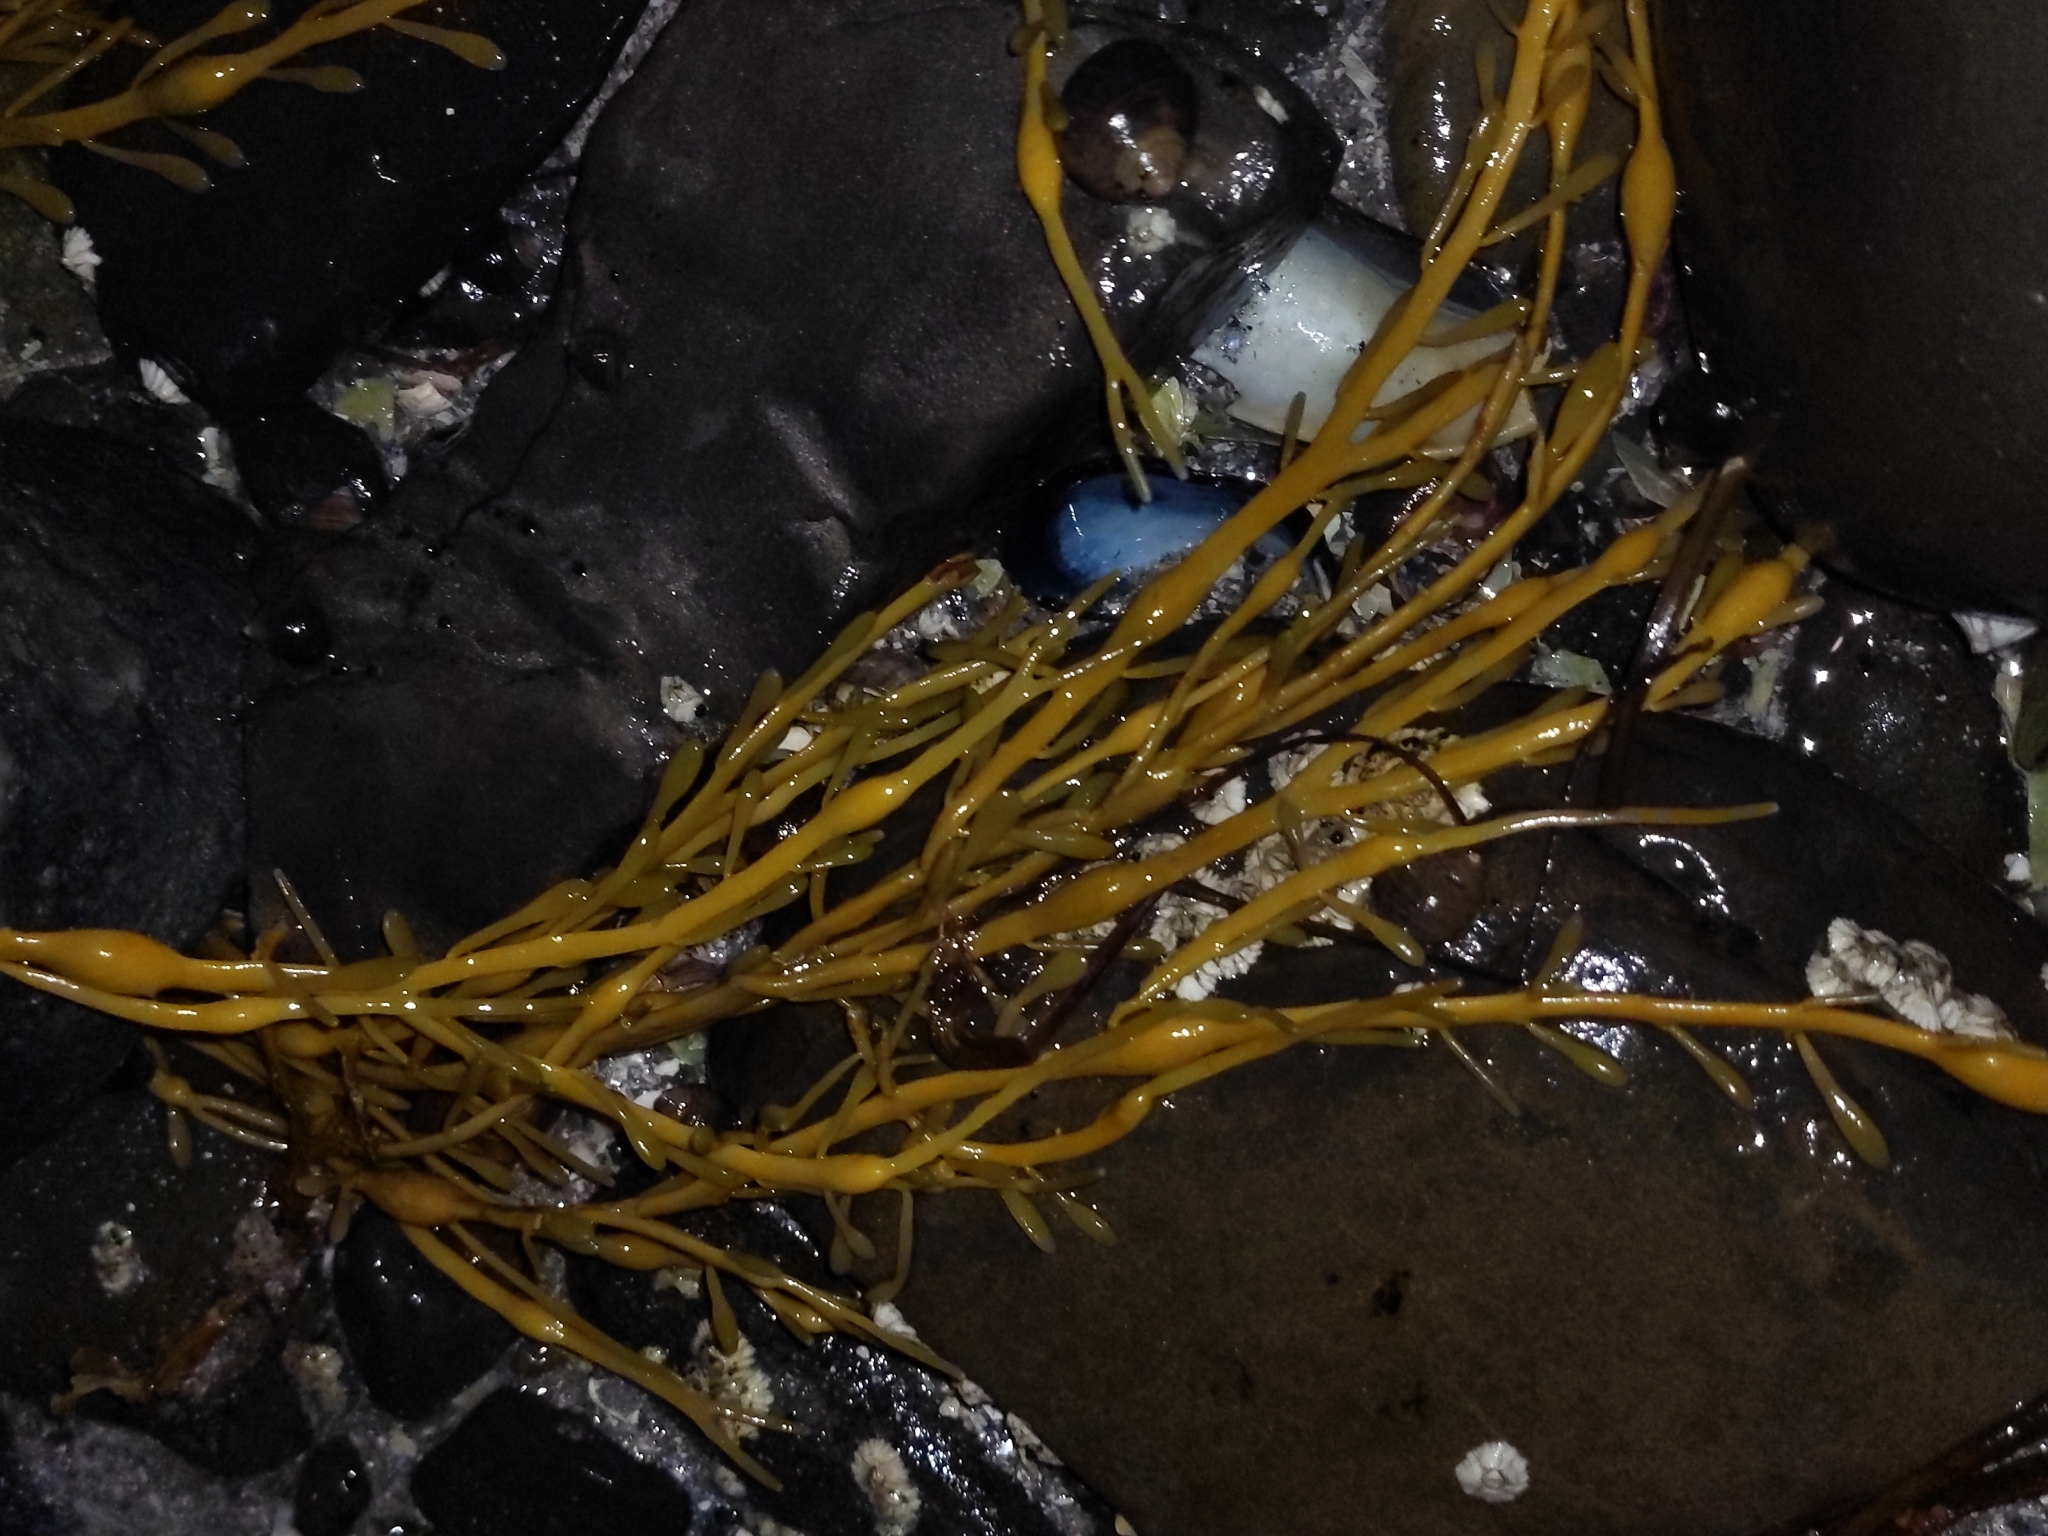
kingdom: Chromista
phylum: Ochrophyta
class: Phaeophyceae
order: Fucales
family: Fucaceae
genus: Ascophyllum
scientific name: Ascophyllum nodosum
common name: Knotted wrack
